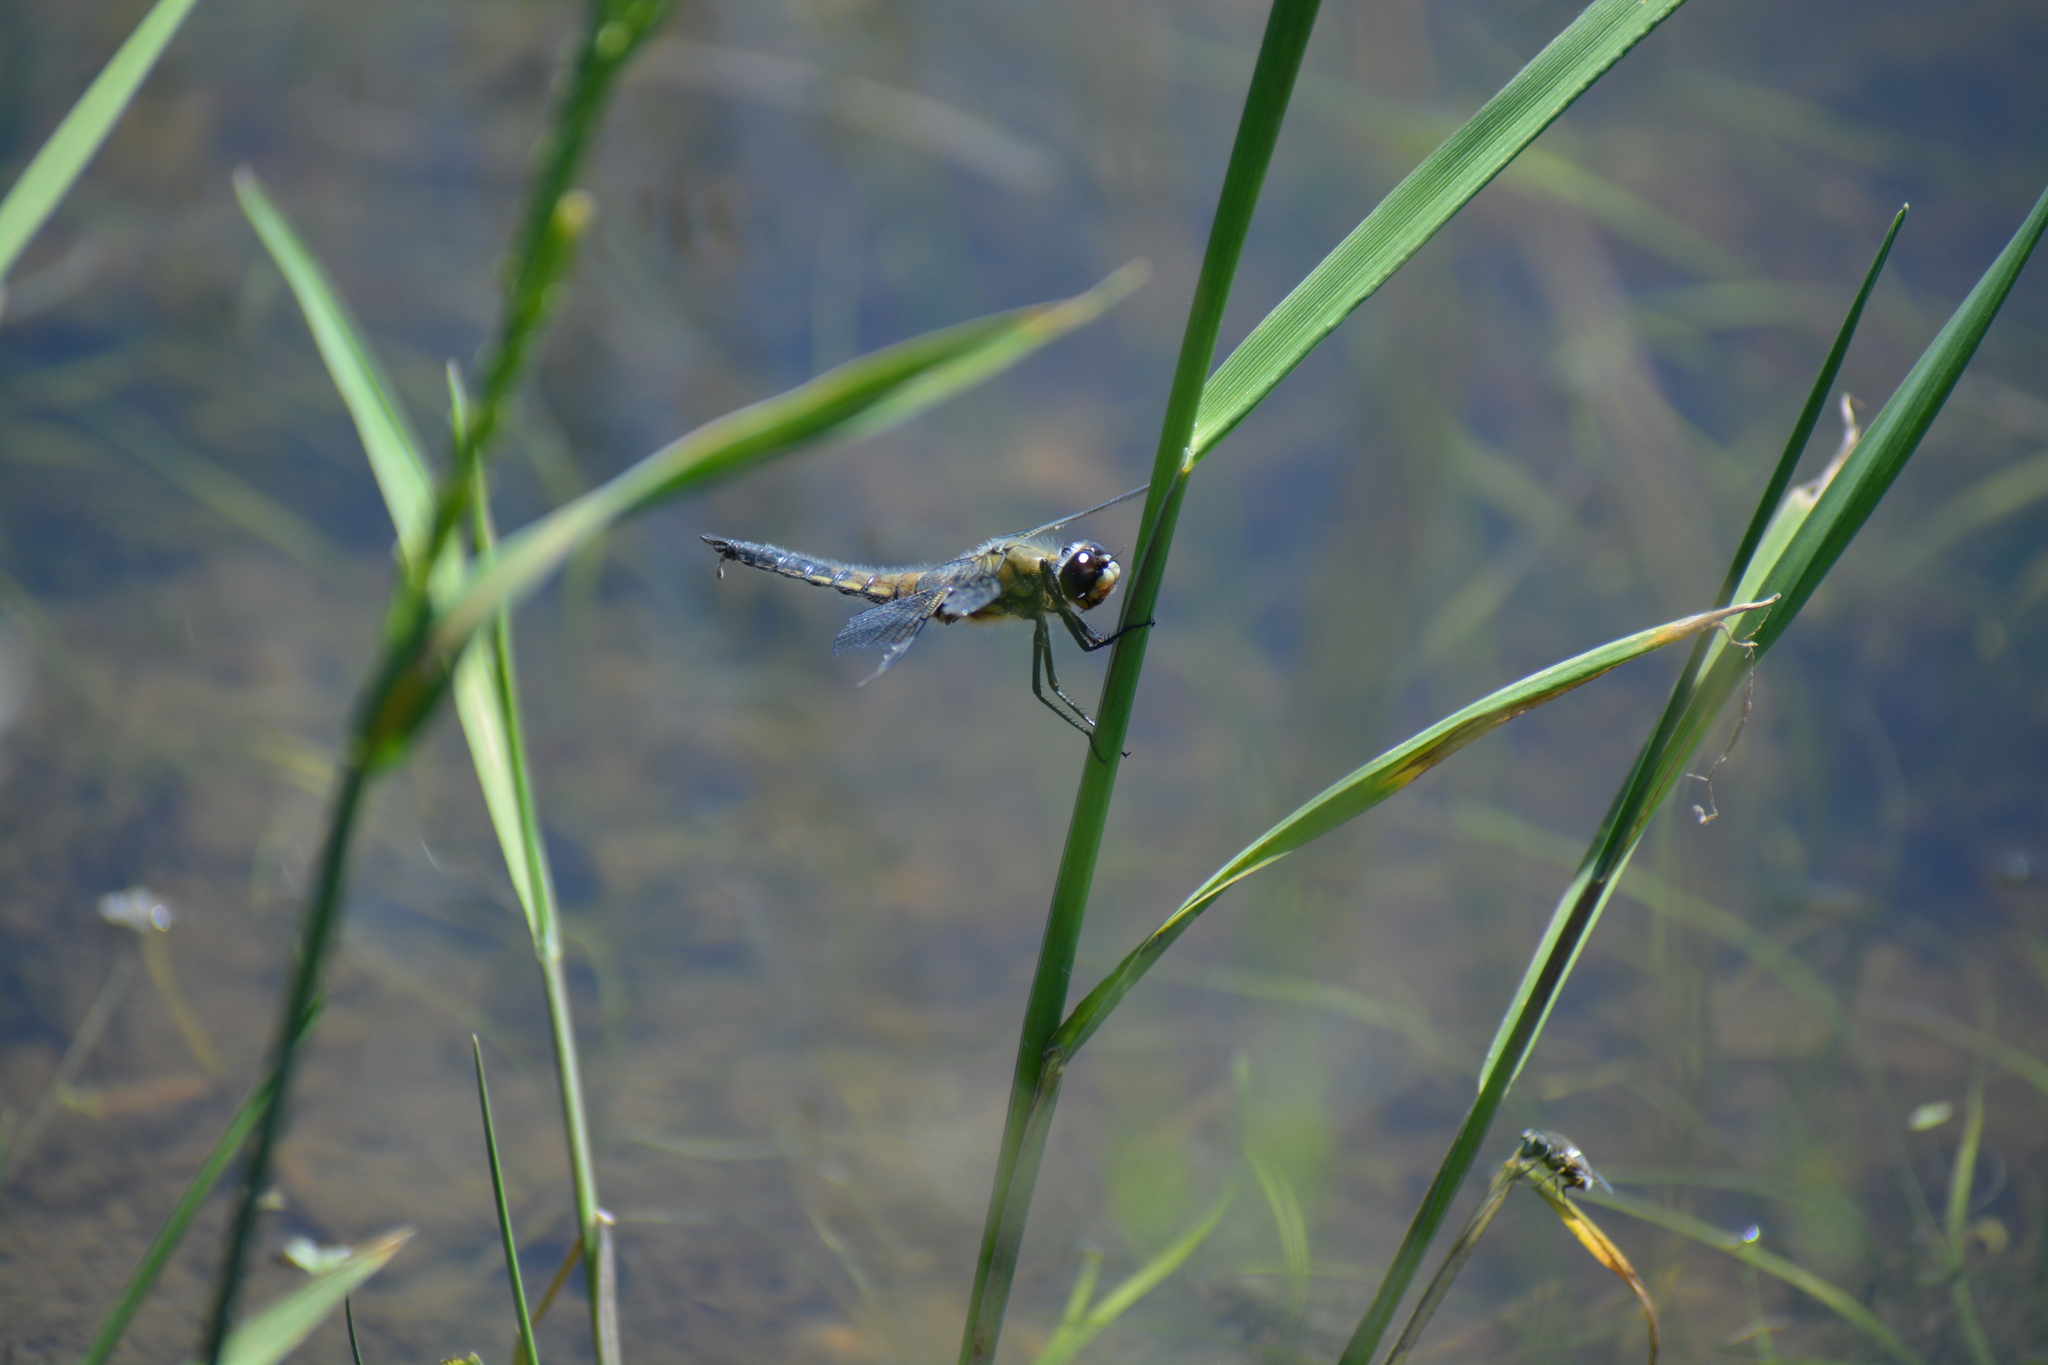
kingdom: Animalia
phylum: Arthropoda
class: Insecta
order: Odonata
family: Libellulidae
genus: Libellula
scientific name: Libellula quadrimaculata
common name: Four-spotted chaser
